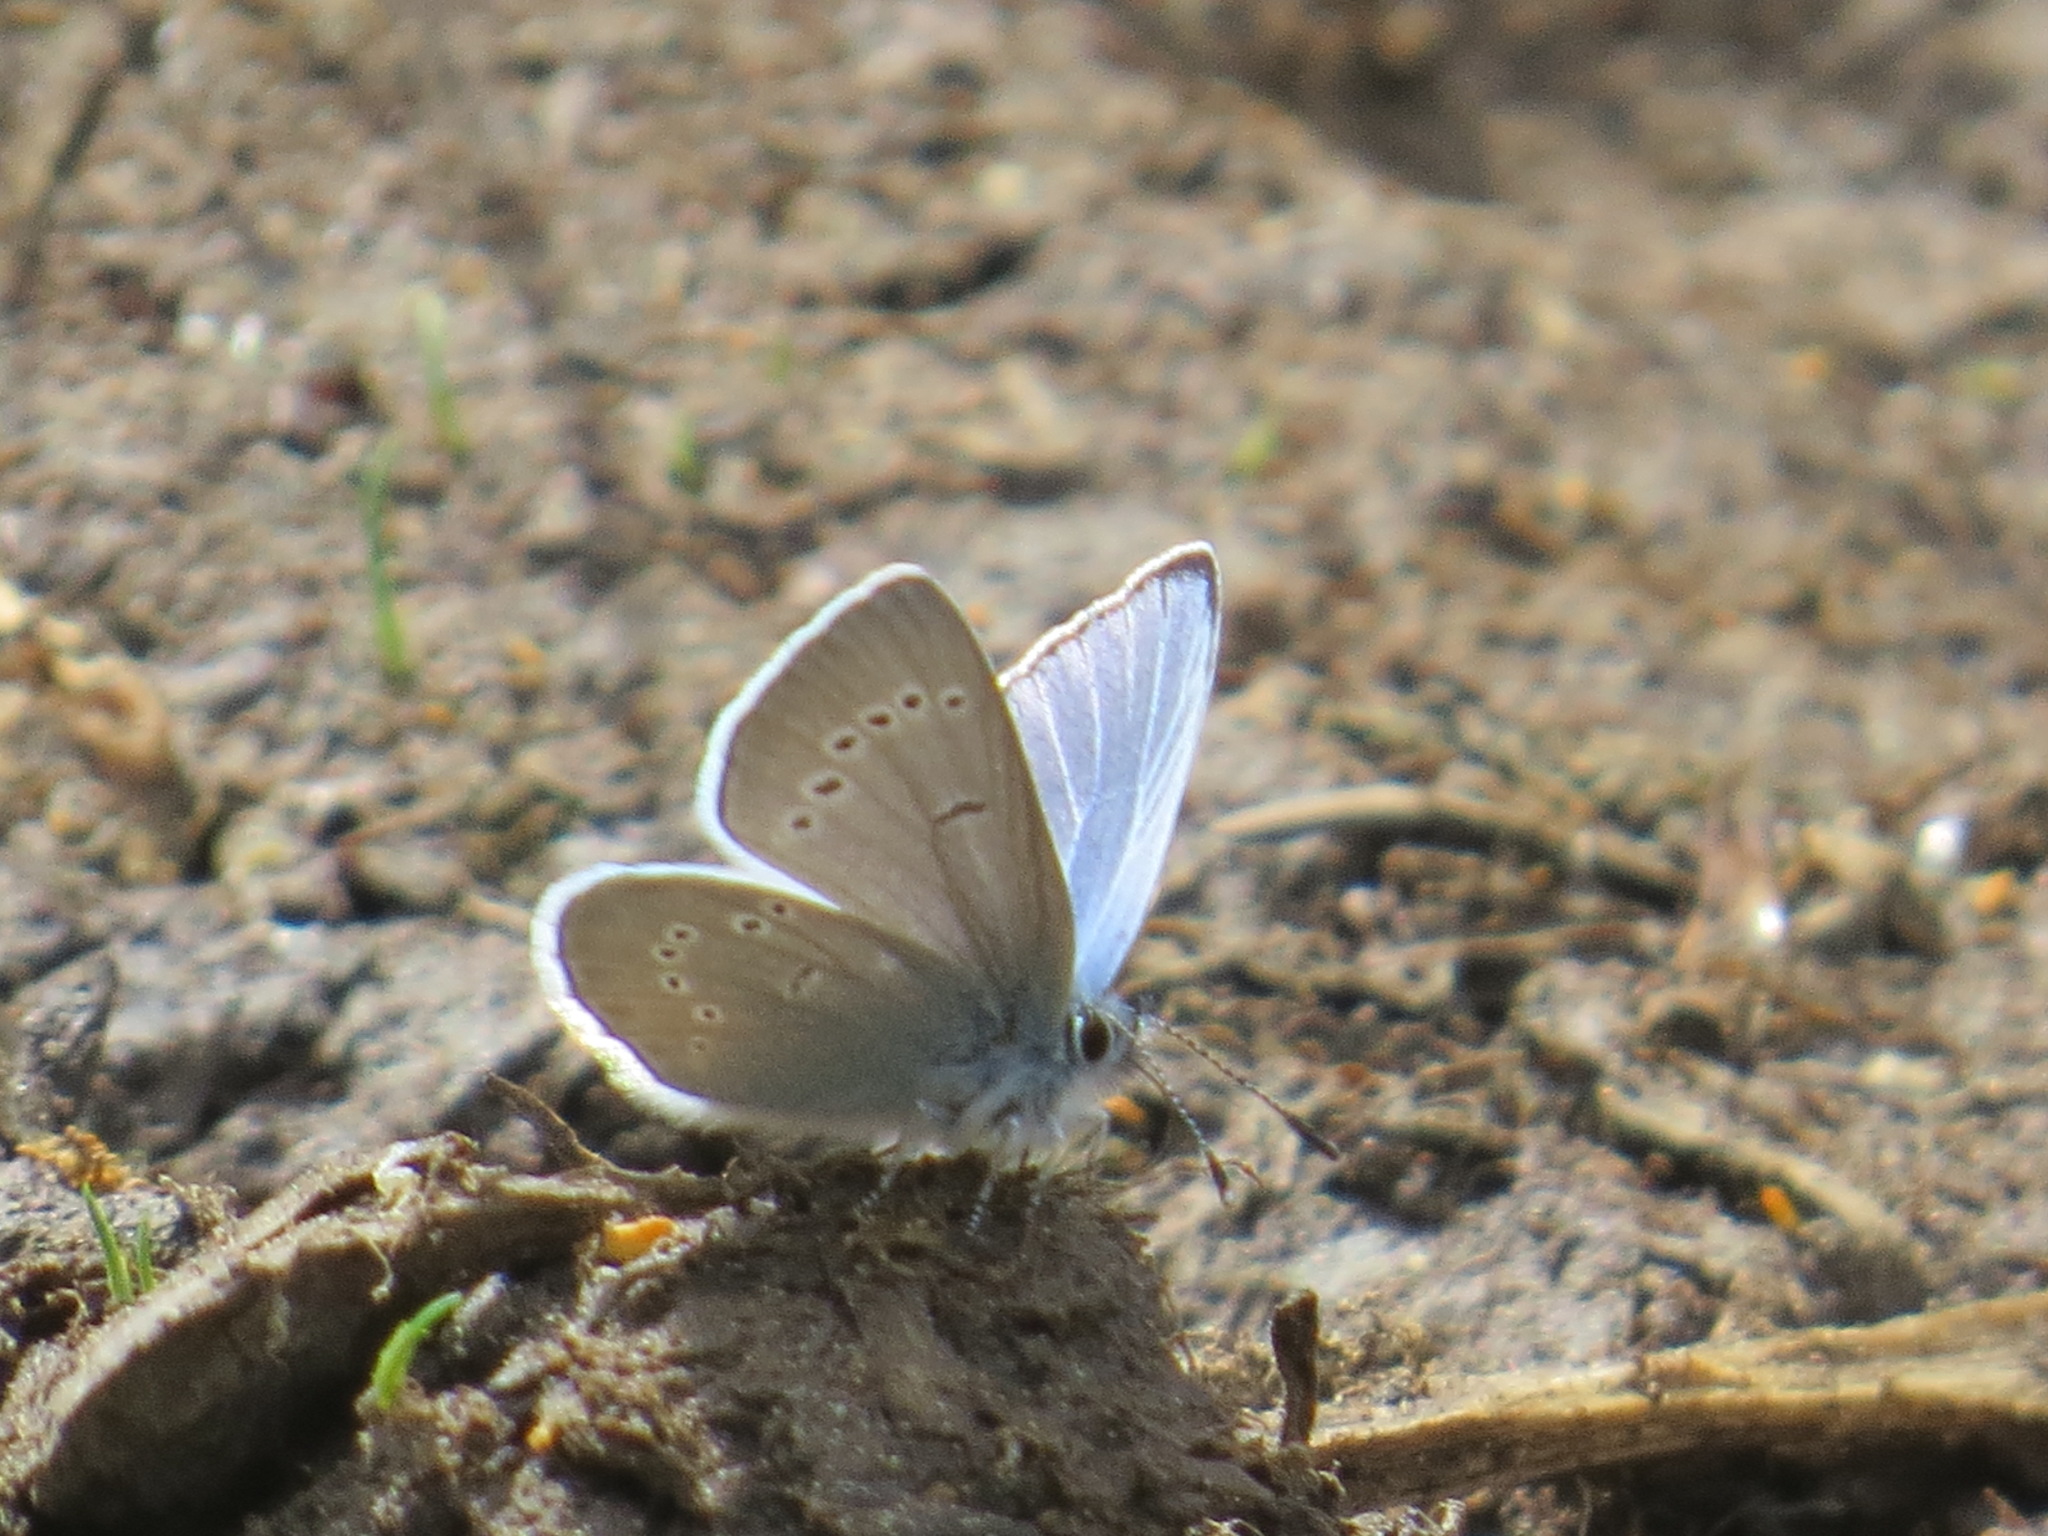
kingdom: Animalia
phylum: Arthropoda
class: Insecta
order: Lepidoptera
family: Lycaenidae
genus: Glaucopsyche
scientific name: Glaucopsyche lygdamus
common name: Silvery blue
